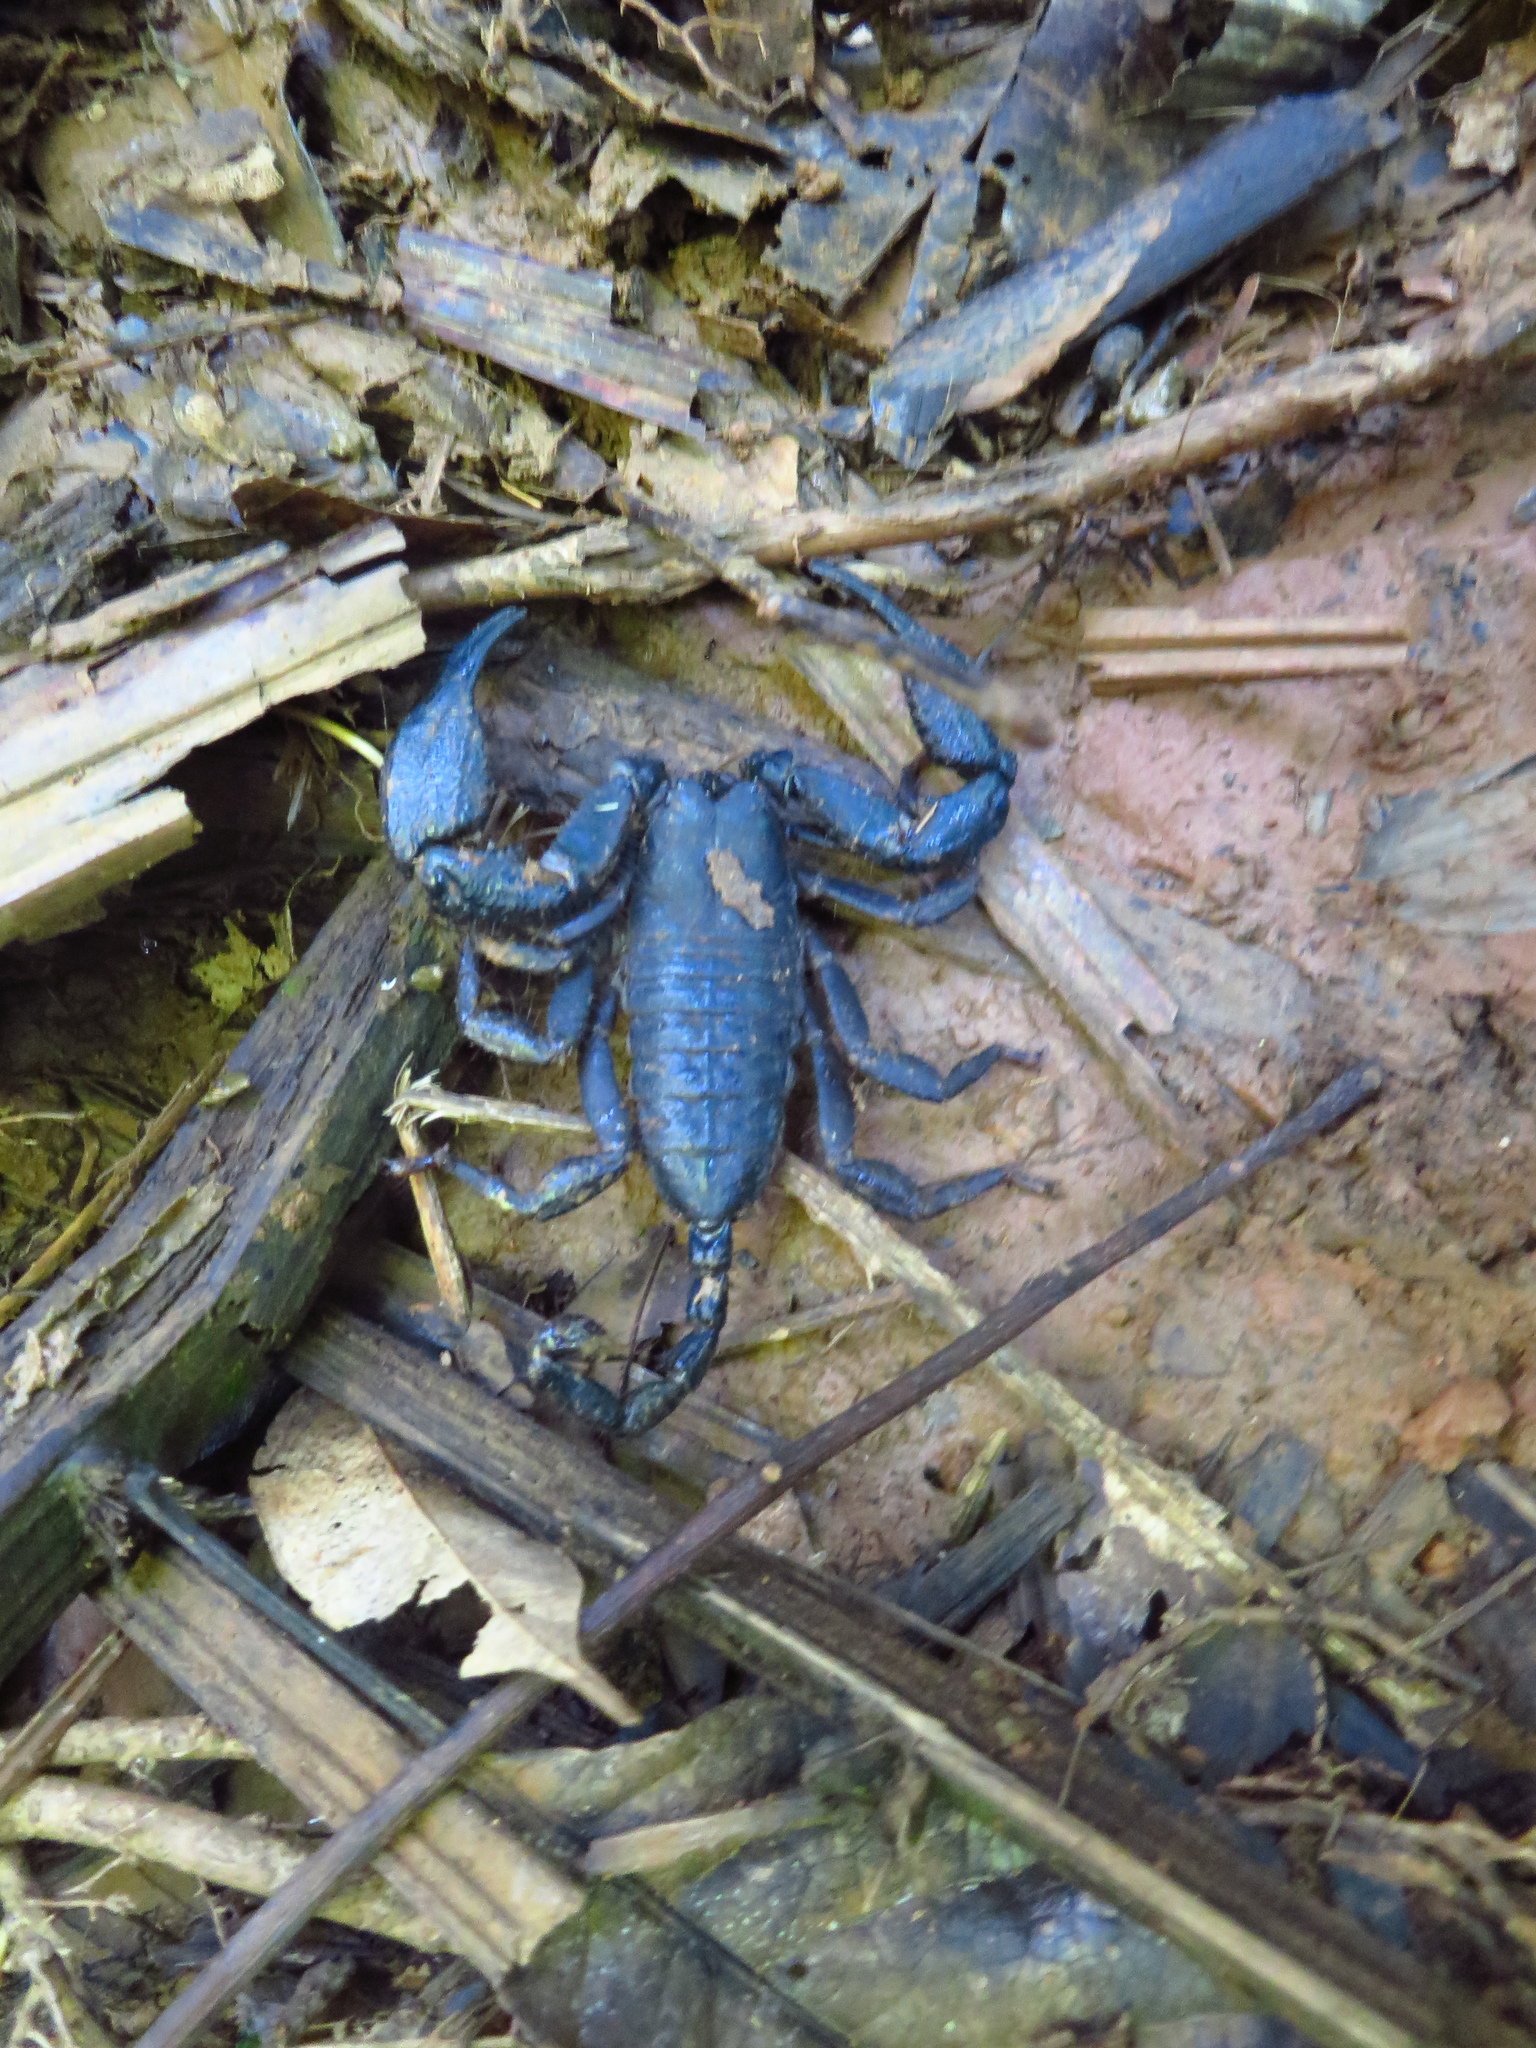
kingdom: Animalia
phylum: Arthropoda
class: Arachnida
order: Scorpiones
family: Hormuridae
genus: Opisthacanthus
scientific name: Opisthacanthus elatus
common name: Scorpions
